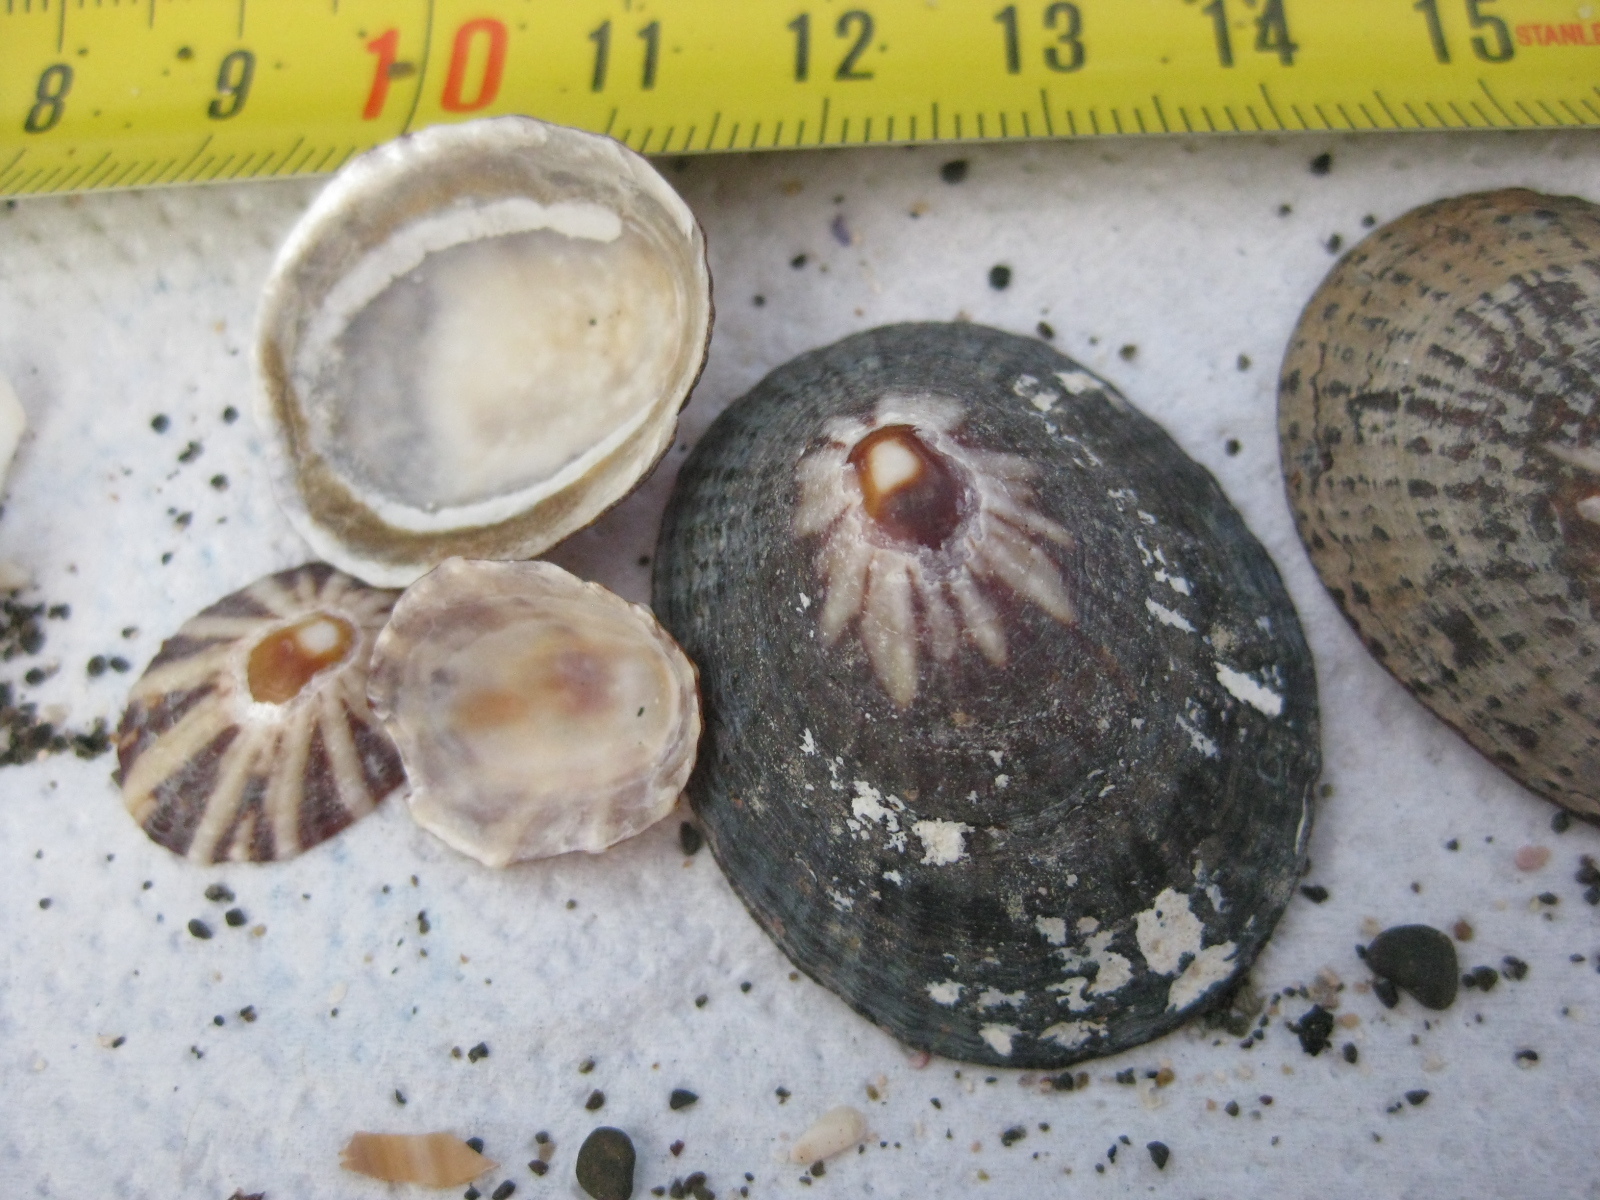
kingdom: Animalia
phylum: Mollusca
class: Gastropoda
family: Nacellidae
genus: Cellana
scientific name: Cellana stellifera
